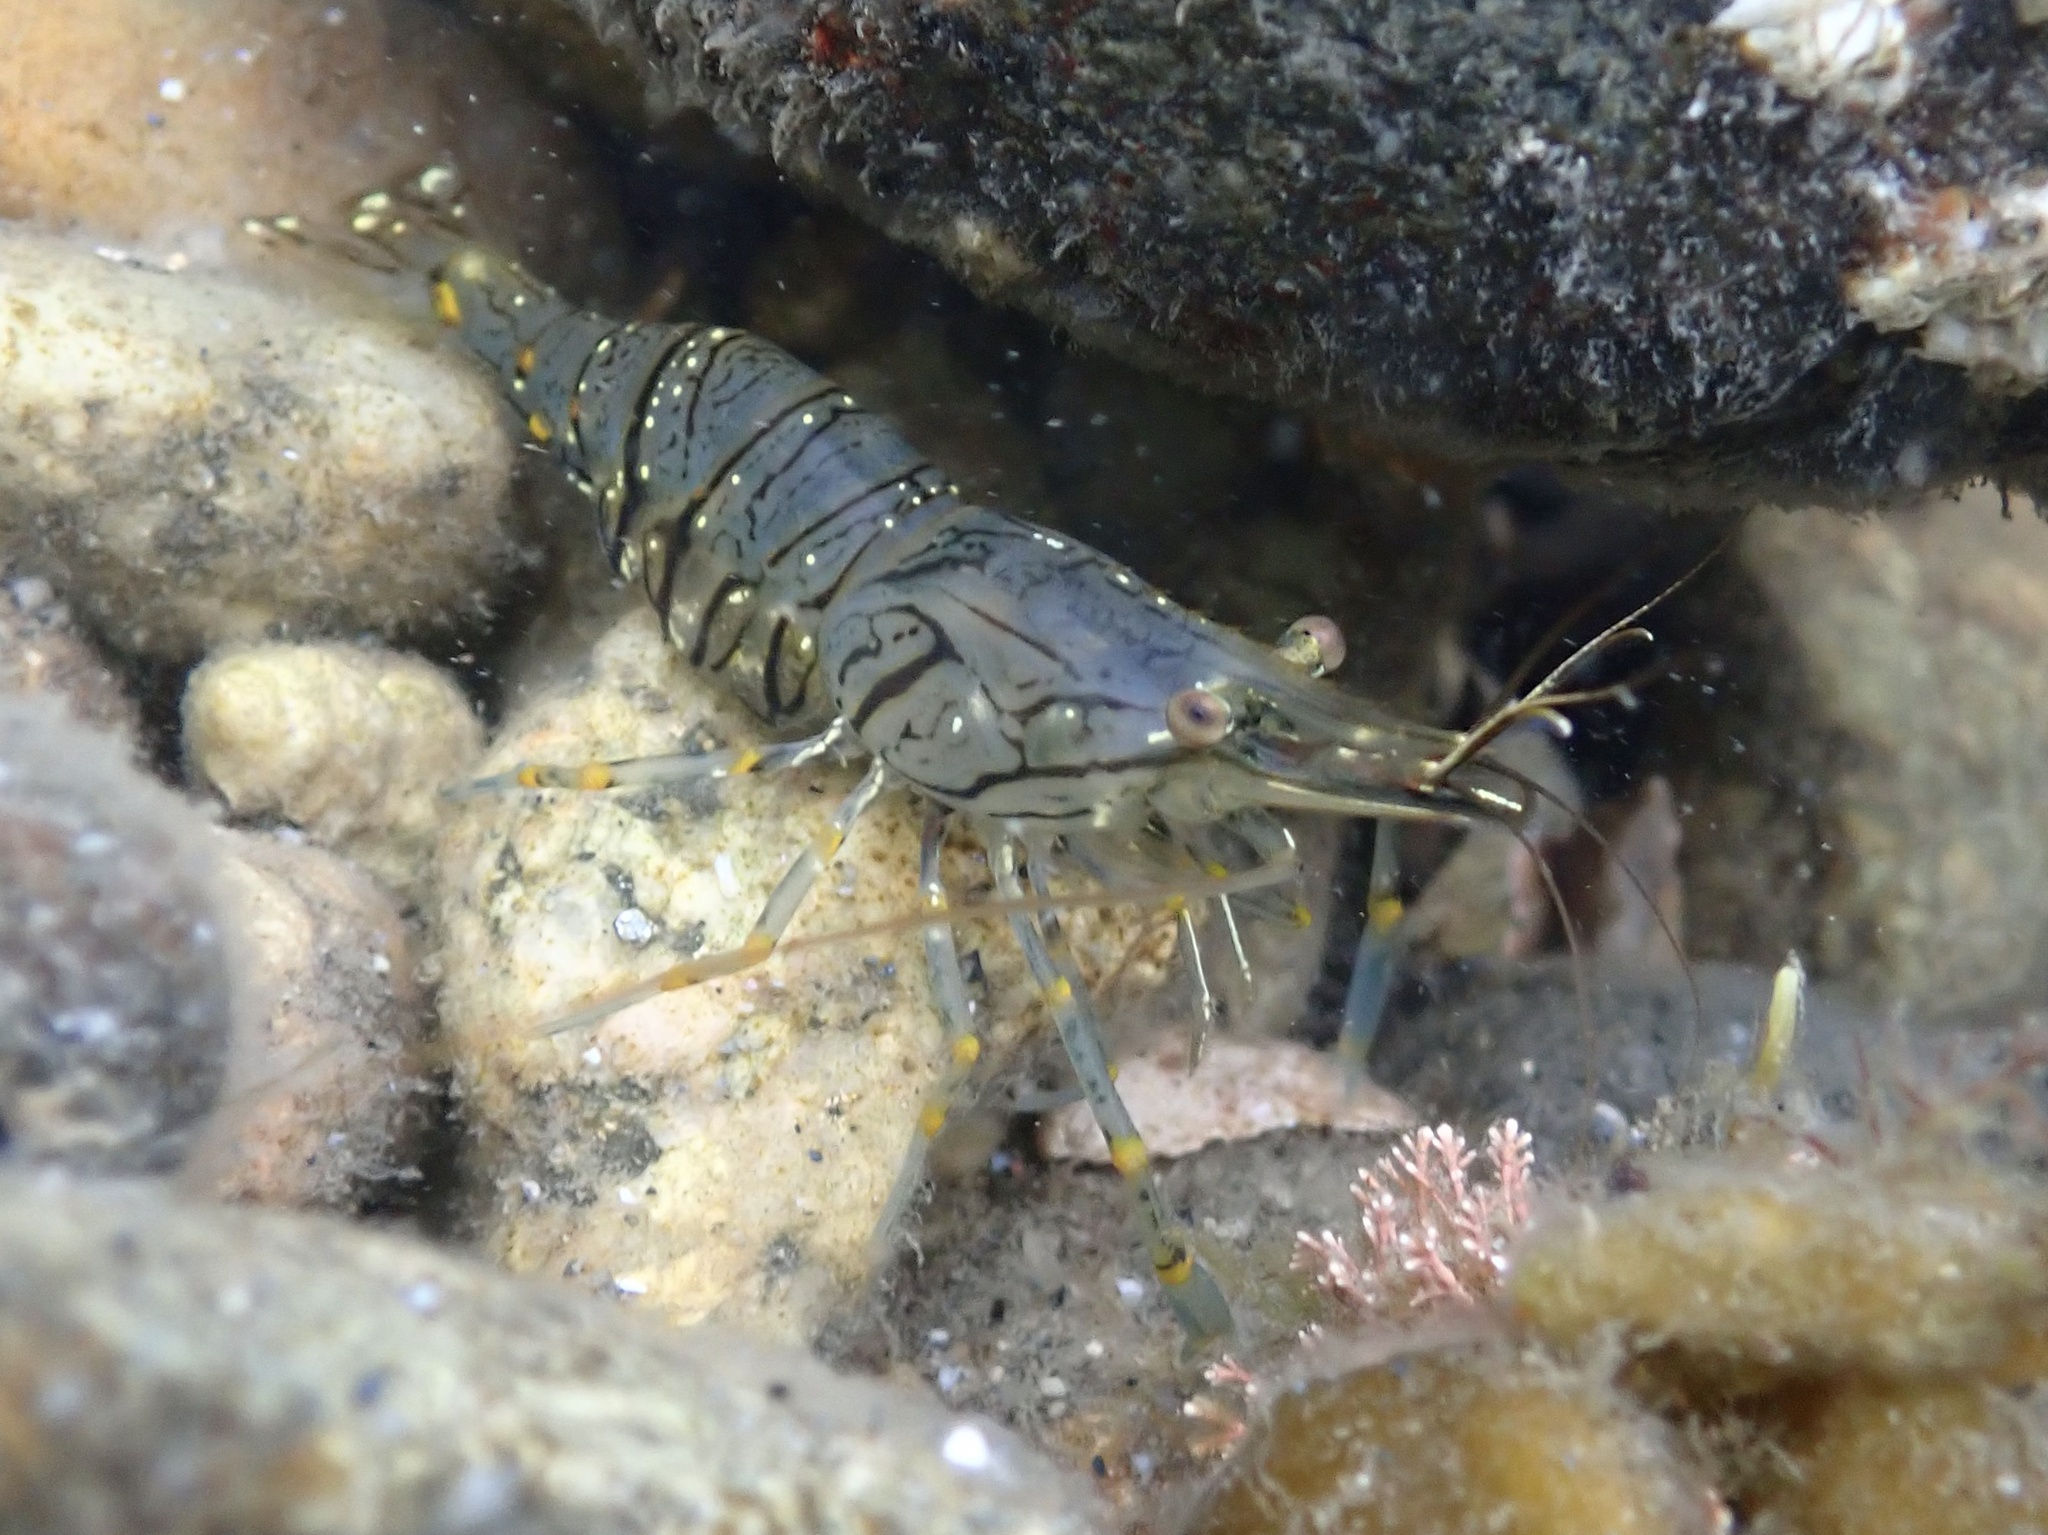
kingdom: Animalia
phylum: Arthropoda
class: Malacostraca
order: Decapoda
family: Palaemonidae
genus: Palaemon
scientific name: Palaemon elegans
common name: Grass prawm
